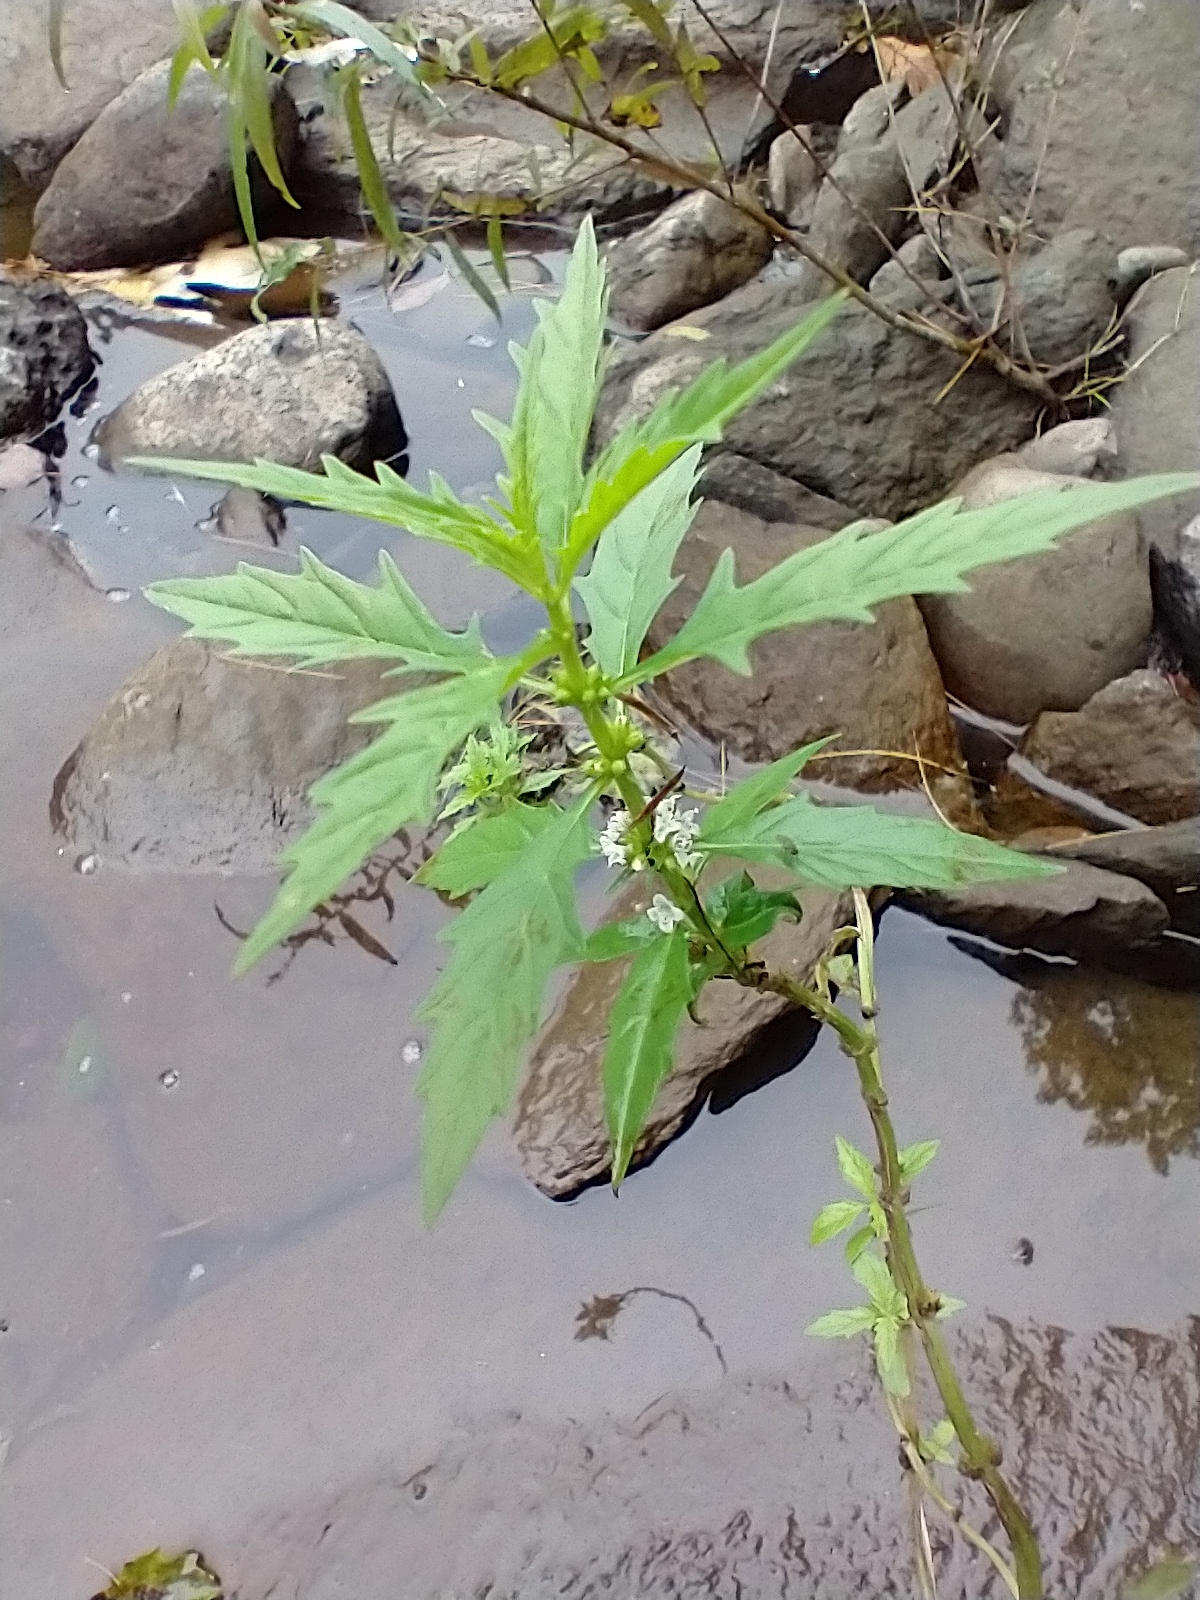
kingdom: Plantae
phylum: Tracheophyta
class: Magnoliopsida
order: Lamiales
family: Lamiaceae
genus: Lycopus
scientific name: Lycopus americanus
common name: American bugleweed
